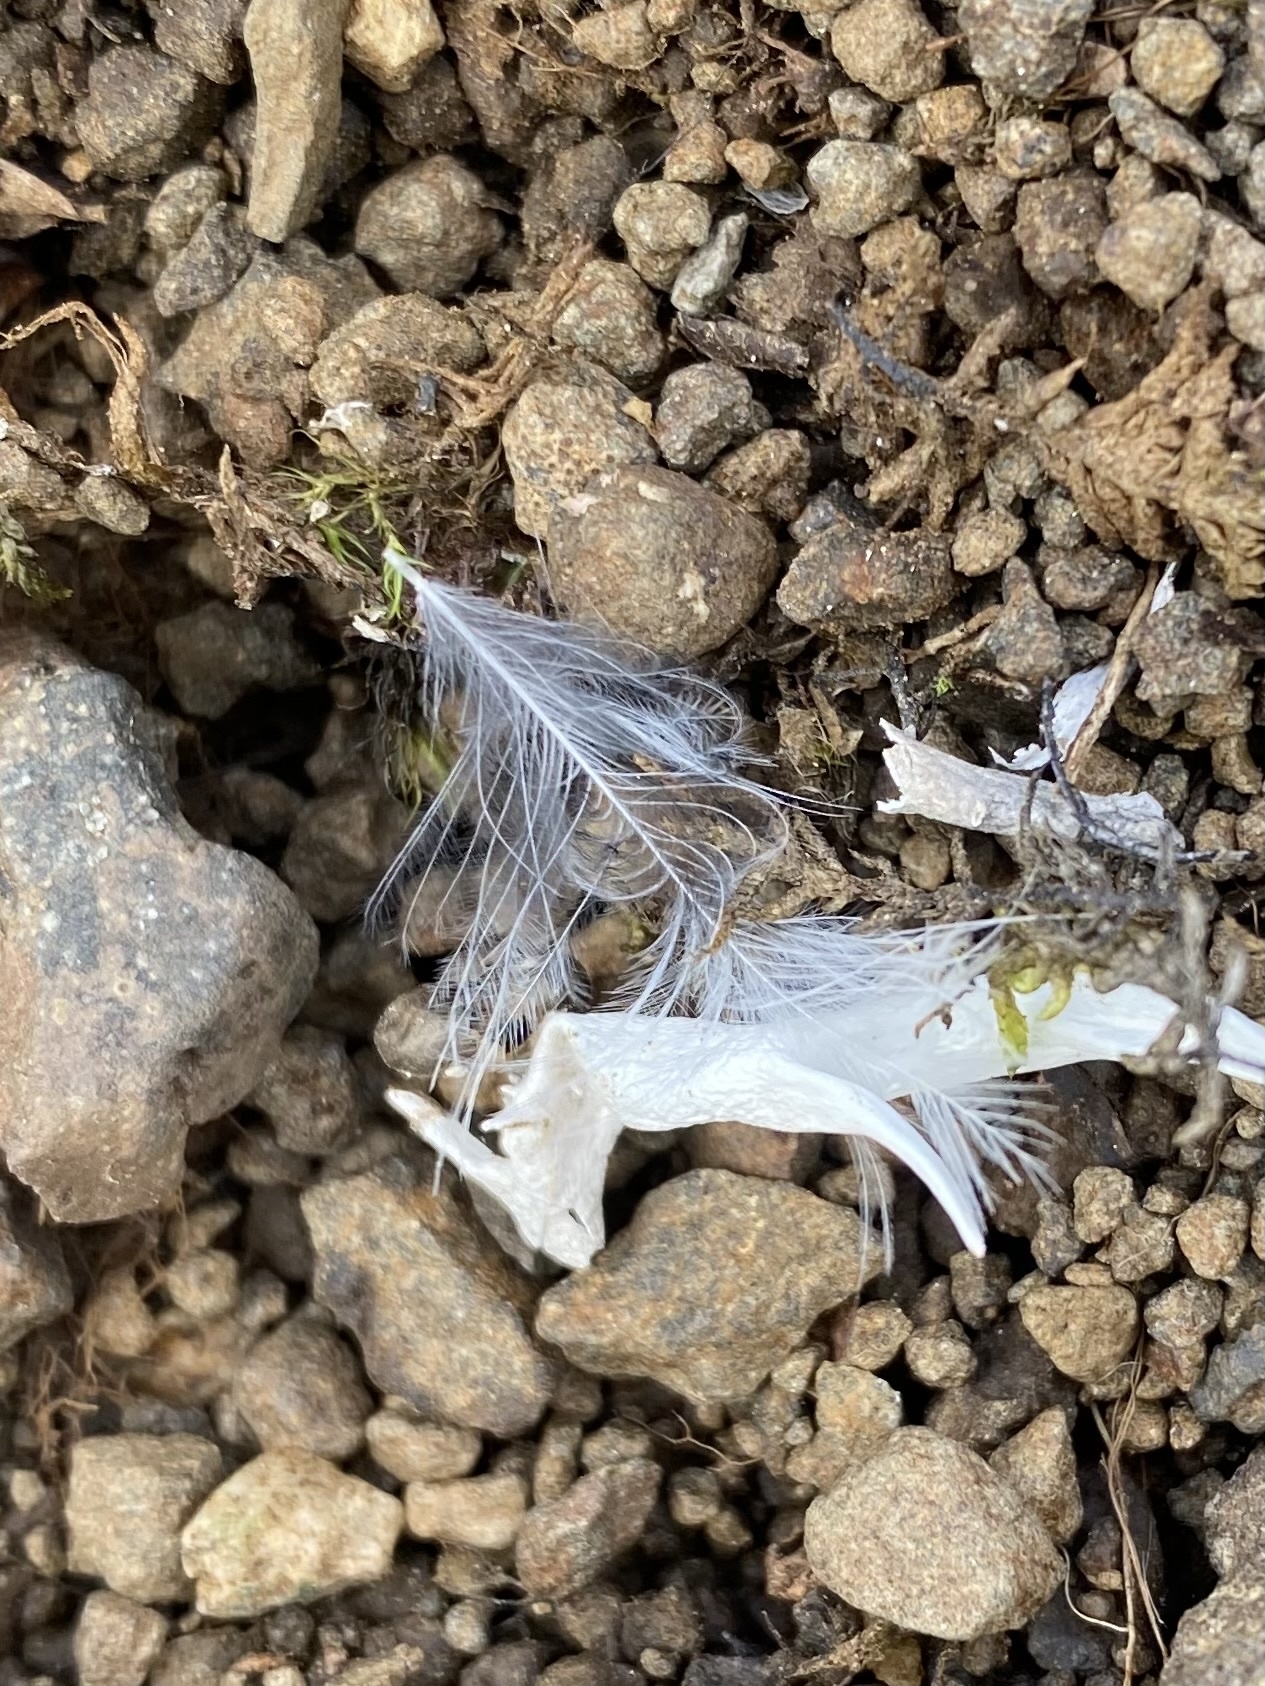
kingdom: Animalia
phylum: Chordata
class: Aves
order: Galliformes
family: Phasianidae
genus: Lagopus
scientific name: Lagopus muta
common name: Rock ptarmigan
